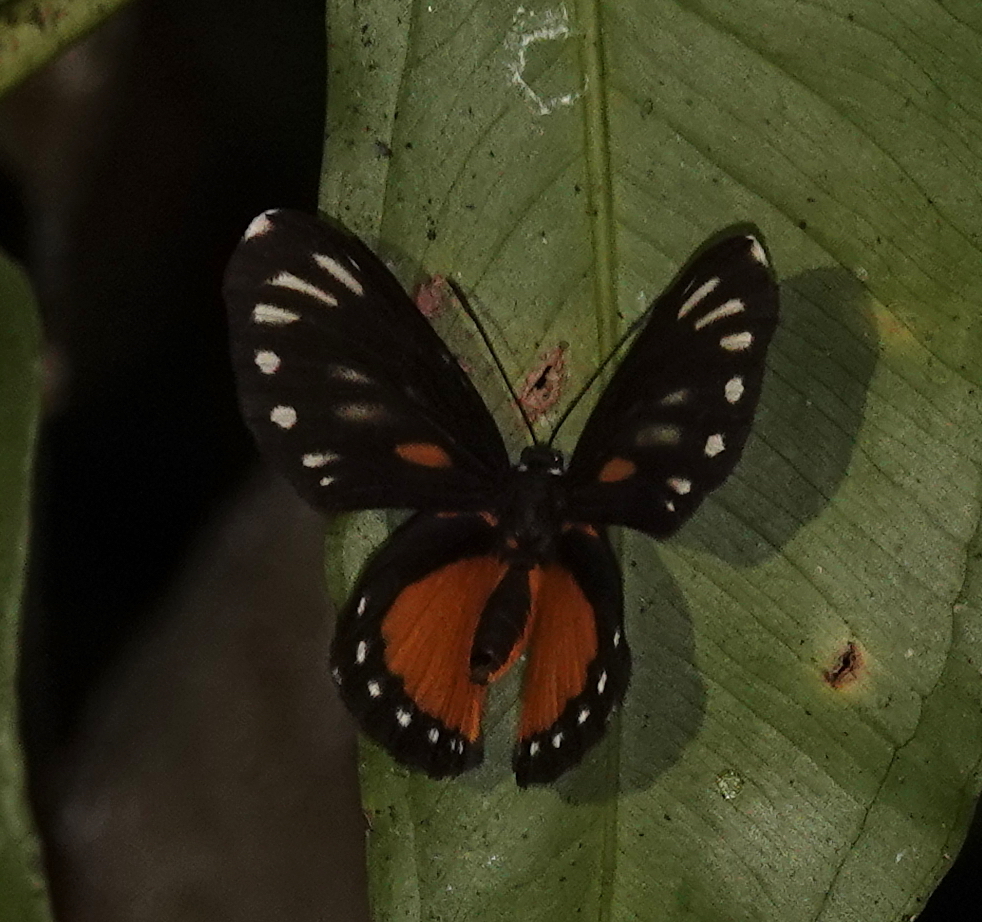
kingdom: Animalia
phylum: Arthropoda
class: Insecta
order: Lepidoptera
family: Riodinidae
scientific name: Riodinidae
